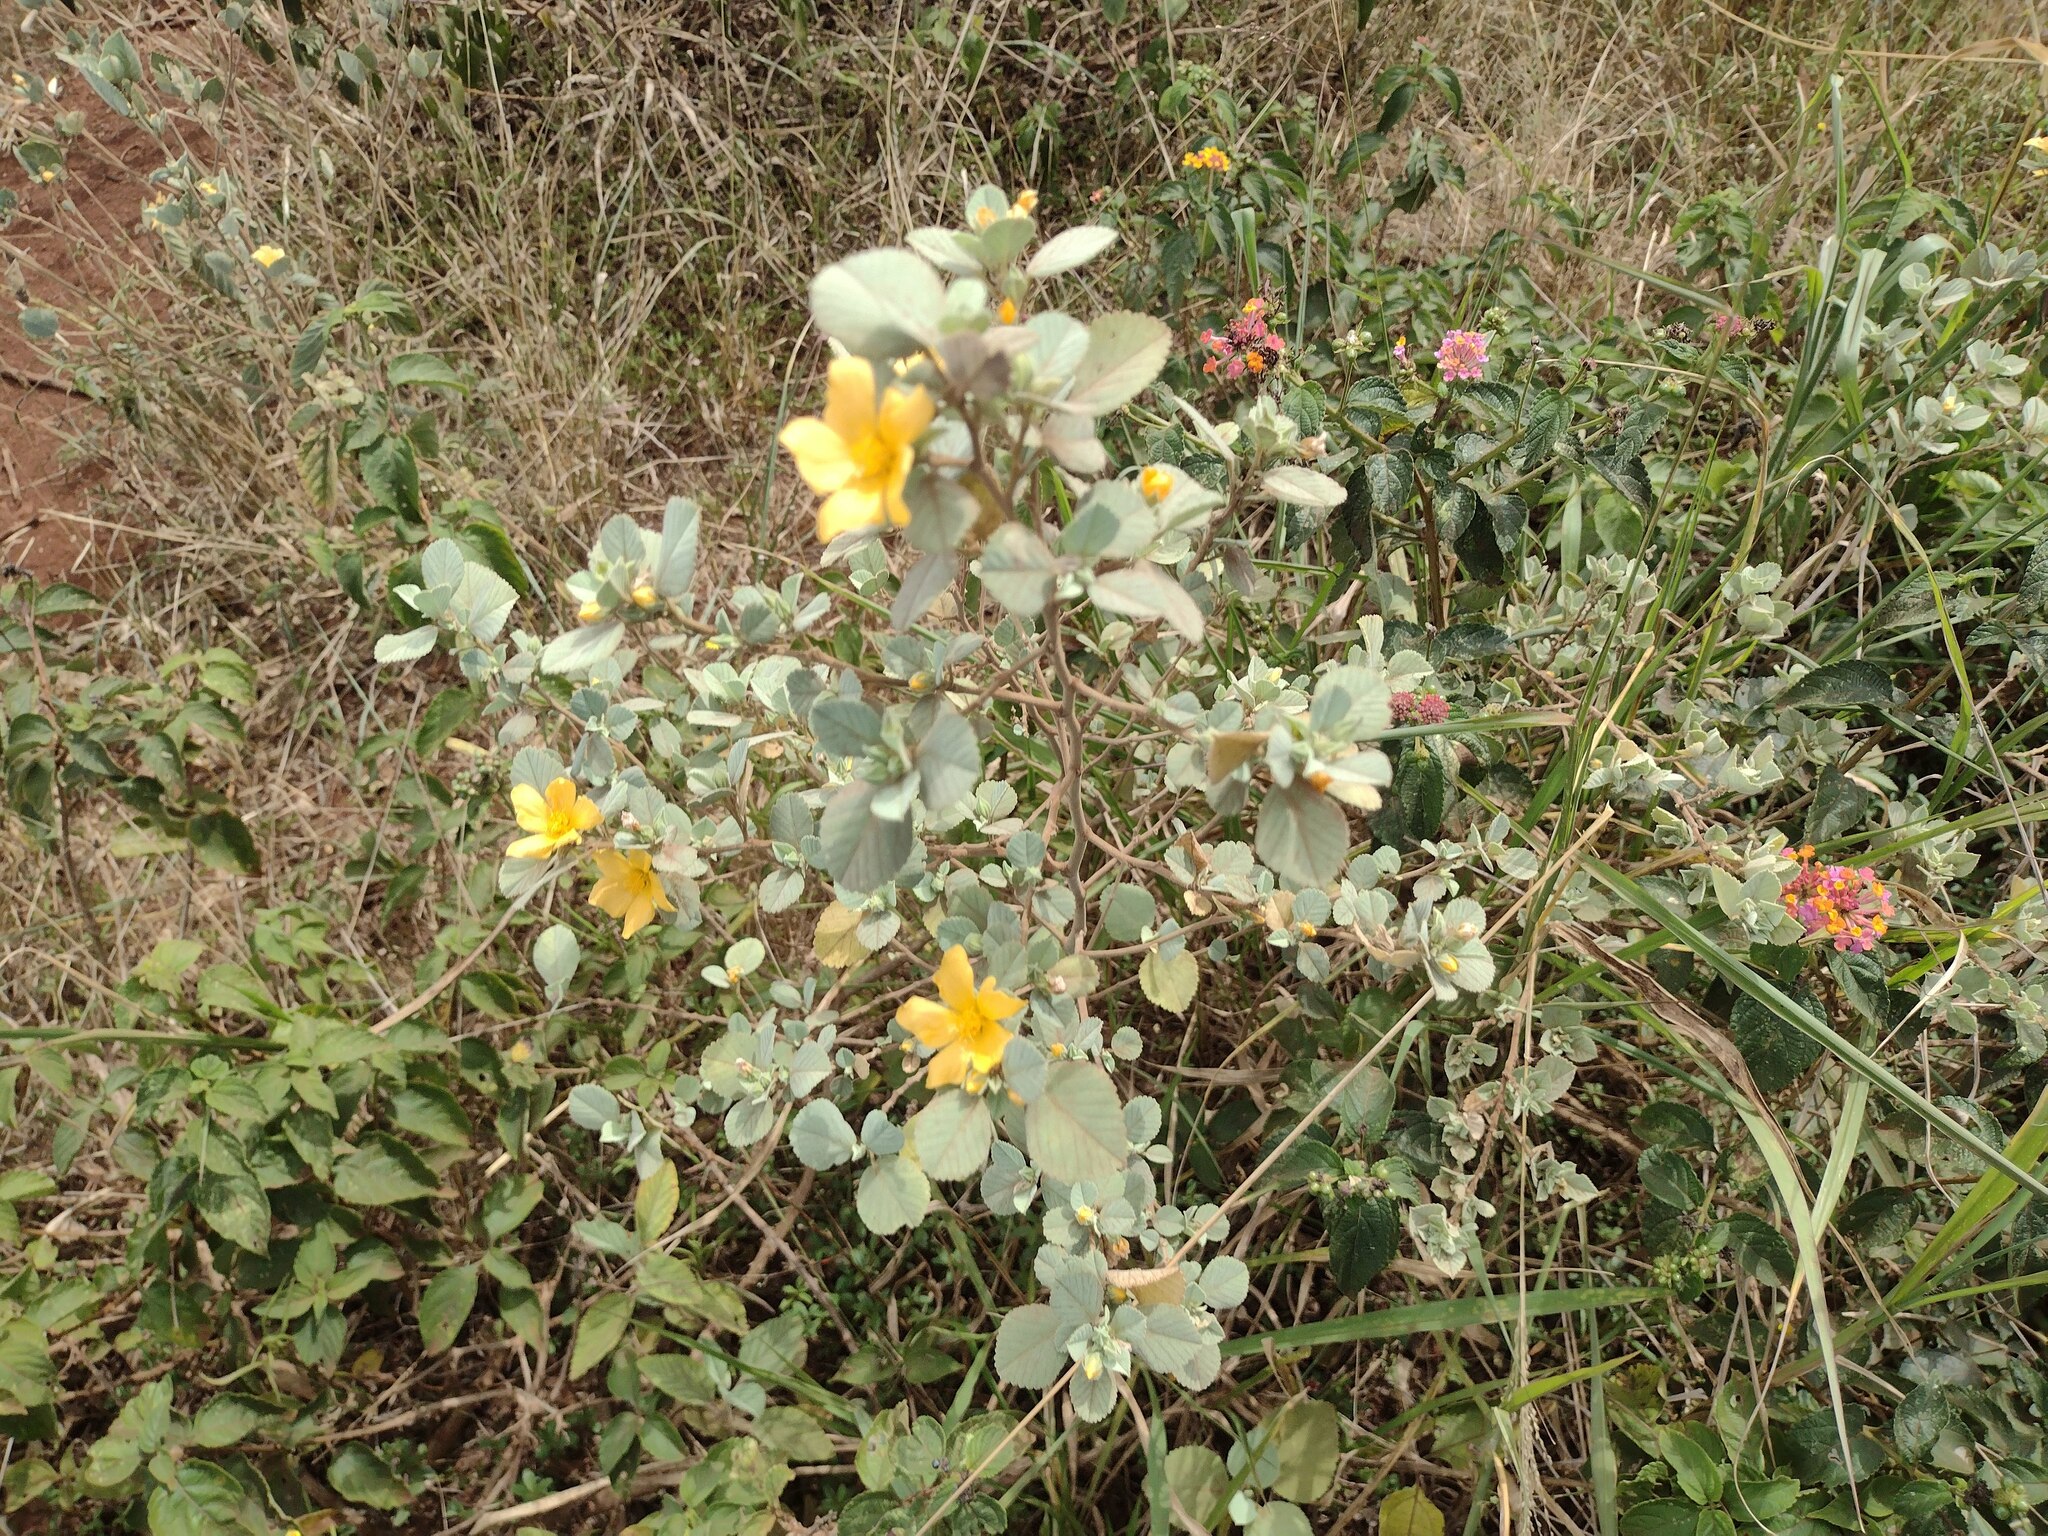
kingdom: Plantae
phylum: Tracheophyta
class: Magnoliopsida
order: Malvales
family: Malvaceae
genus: Sida
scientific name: Sida fallax
